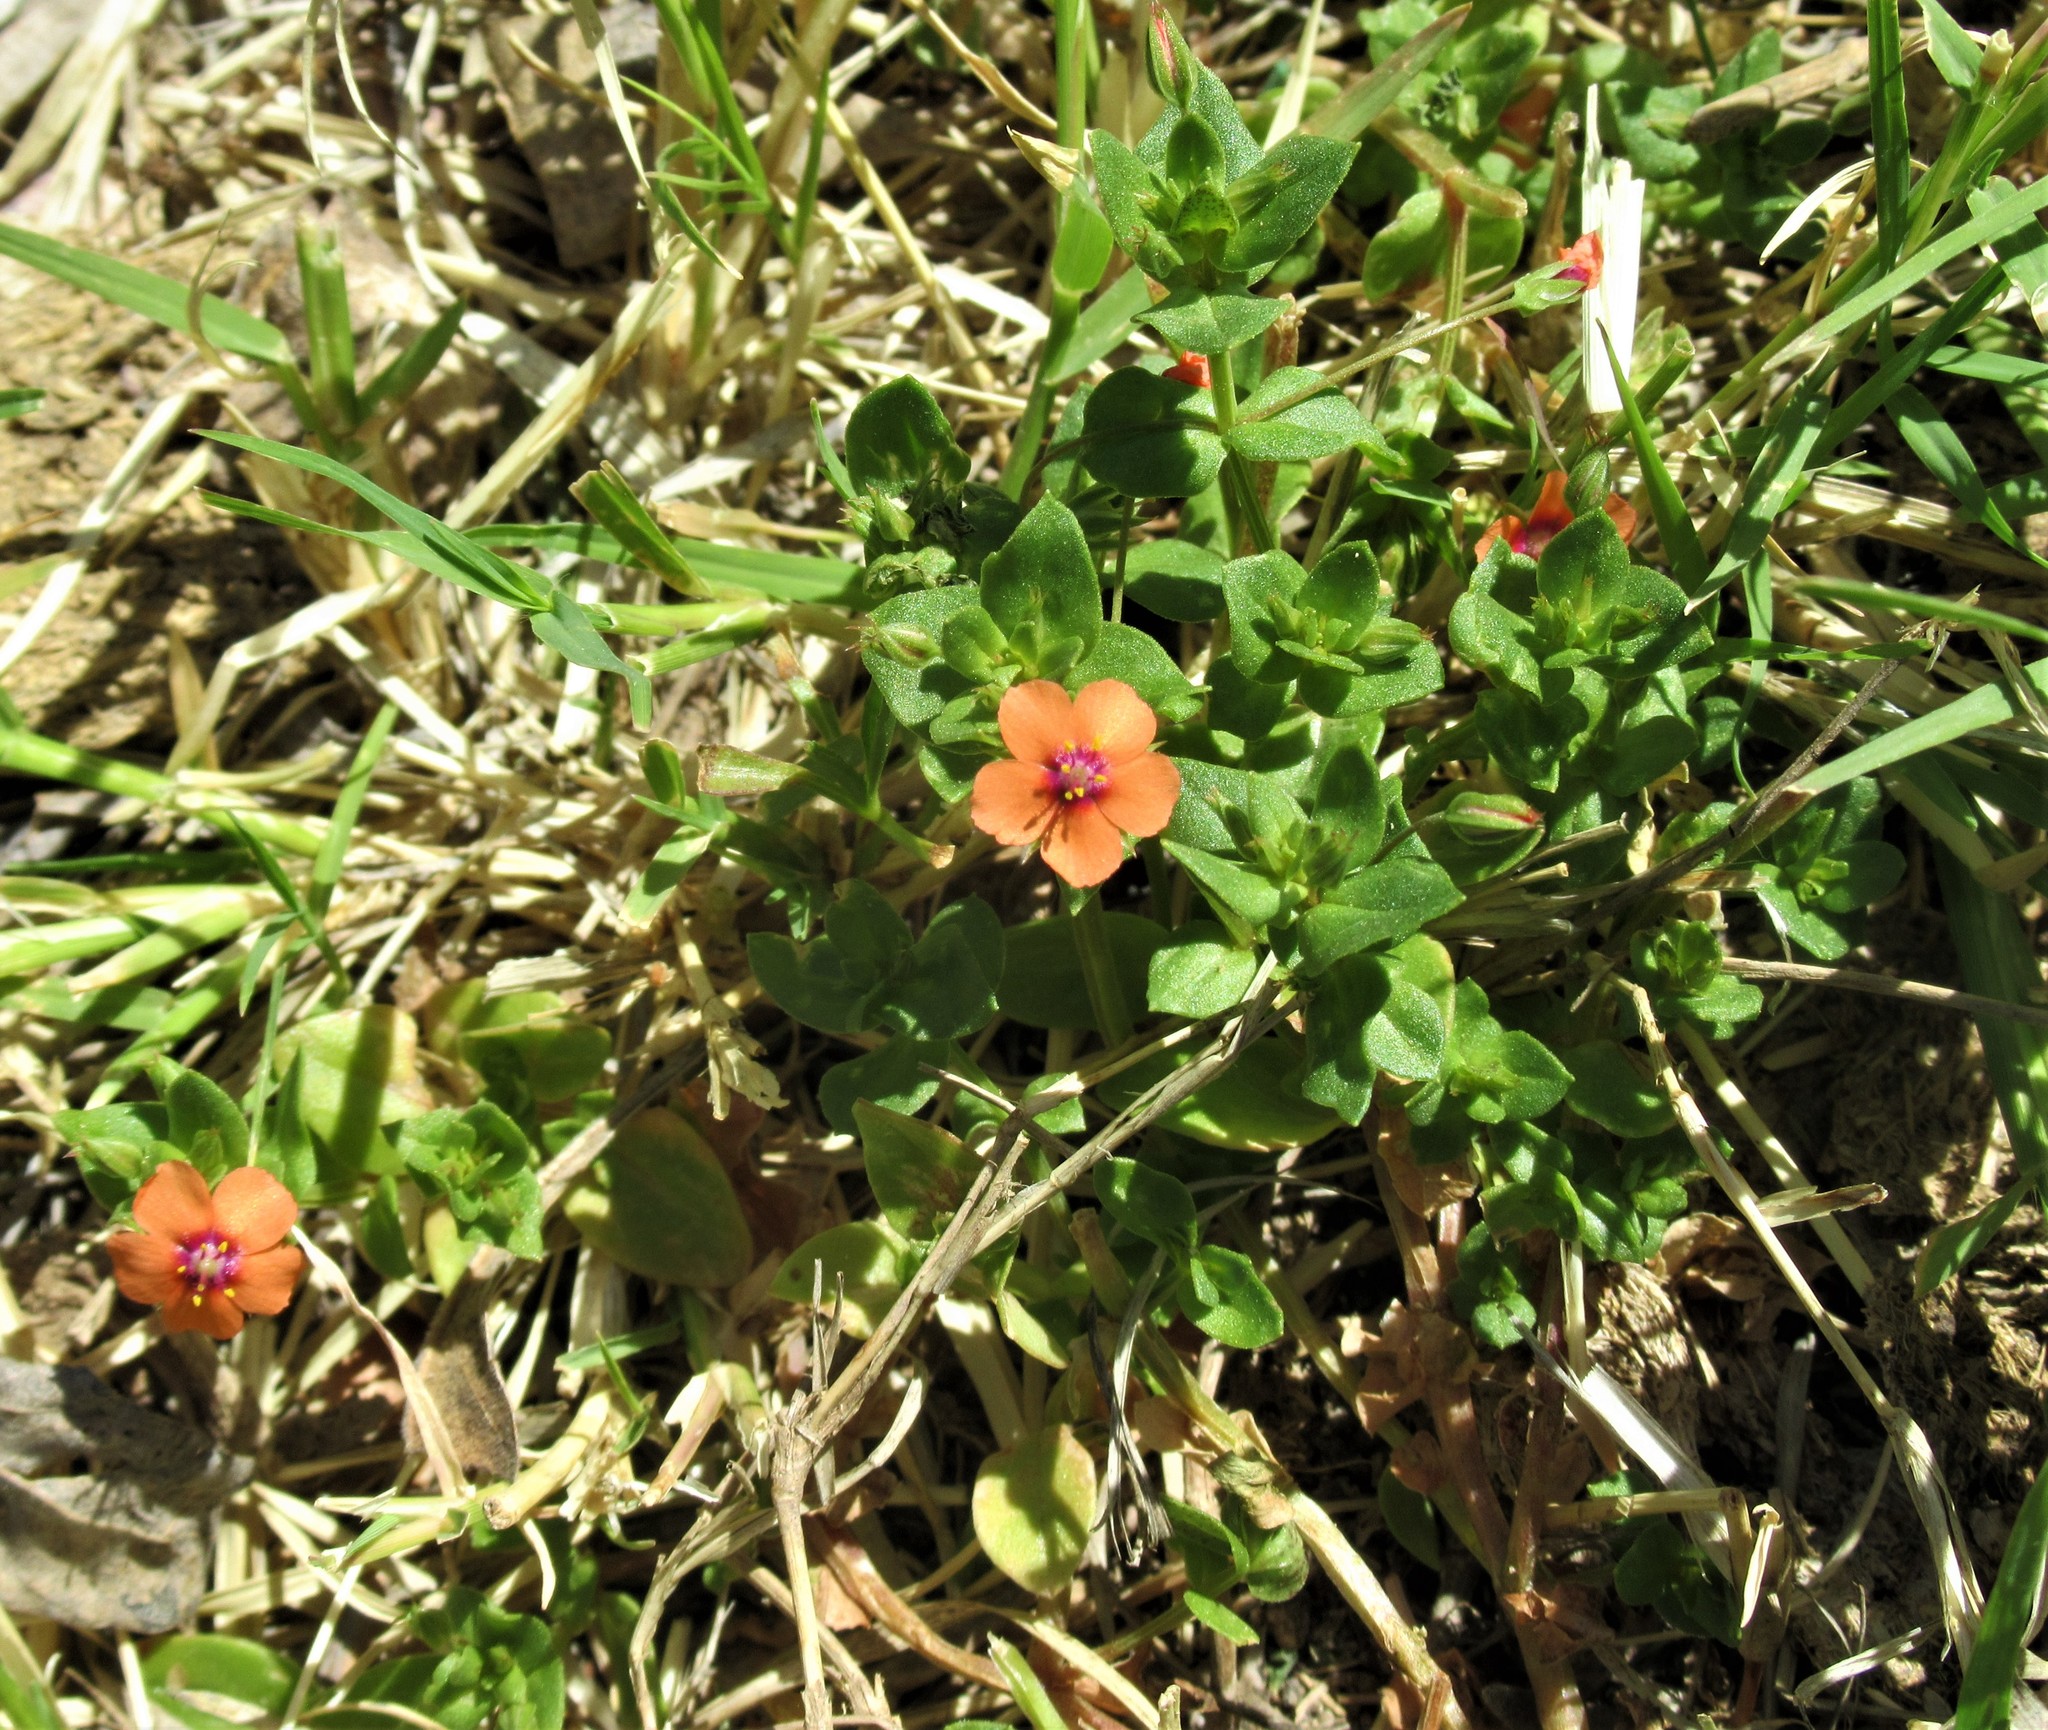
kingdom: Plantae
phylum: Tracheophyta
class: Magnoliopsida
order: Ericales
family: Primulaceae
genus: Lysimachia
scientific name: Lysimachia arvensis
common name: Scarlet pimpernel
